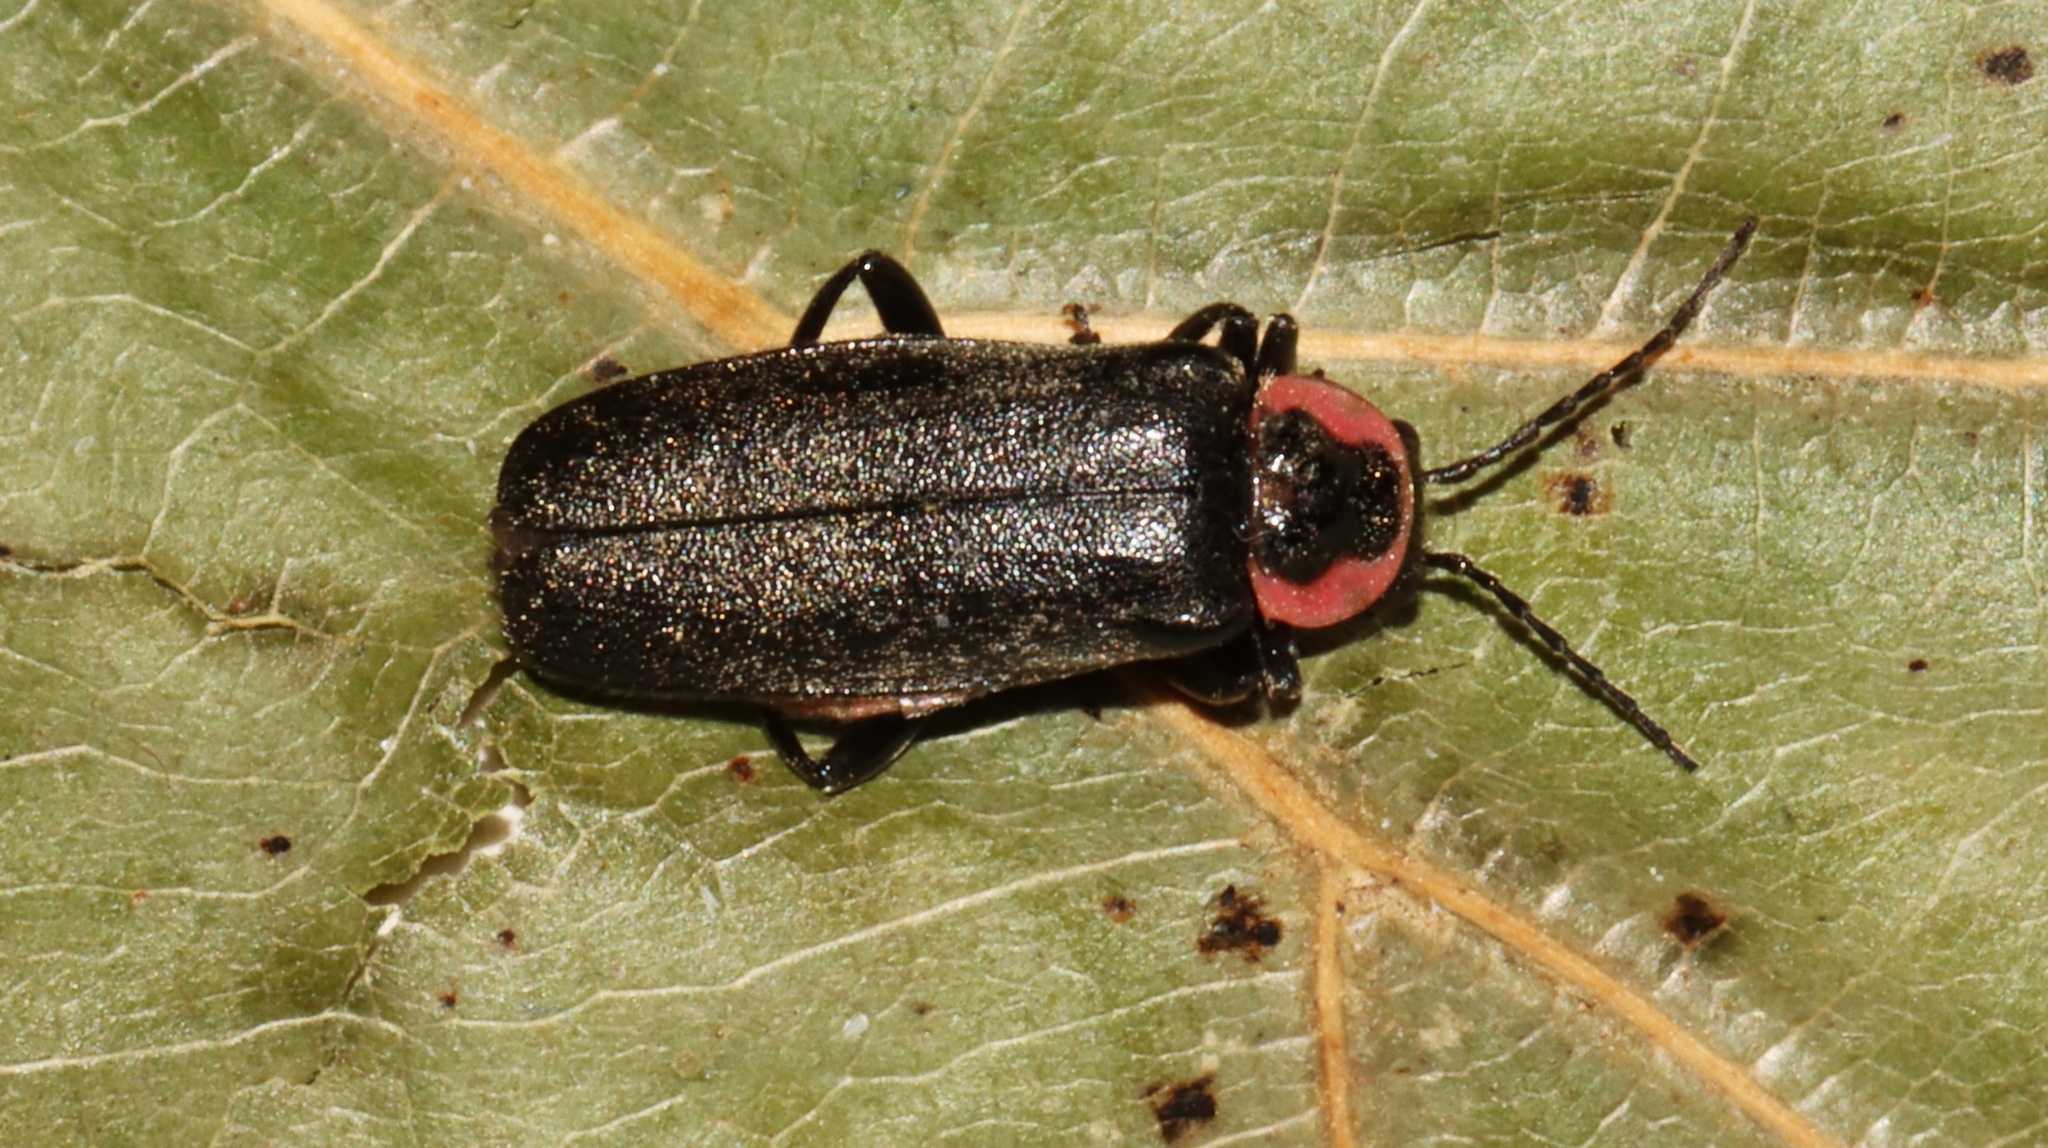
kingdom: Animalia
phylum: Arthropoda
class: Insecta
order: Coleoptera
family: Cantharidae
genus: Atalantycha
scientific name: Atalantycha neglecta
